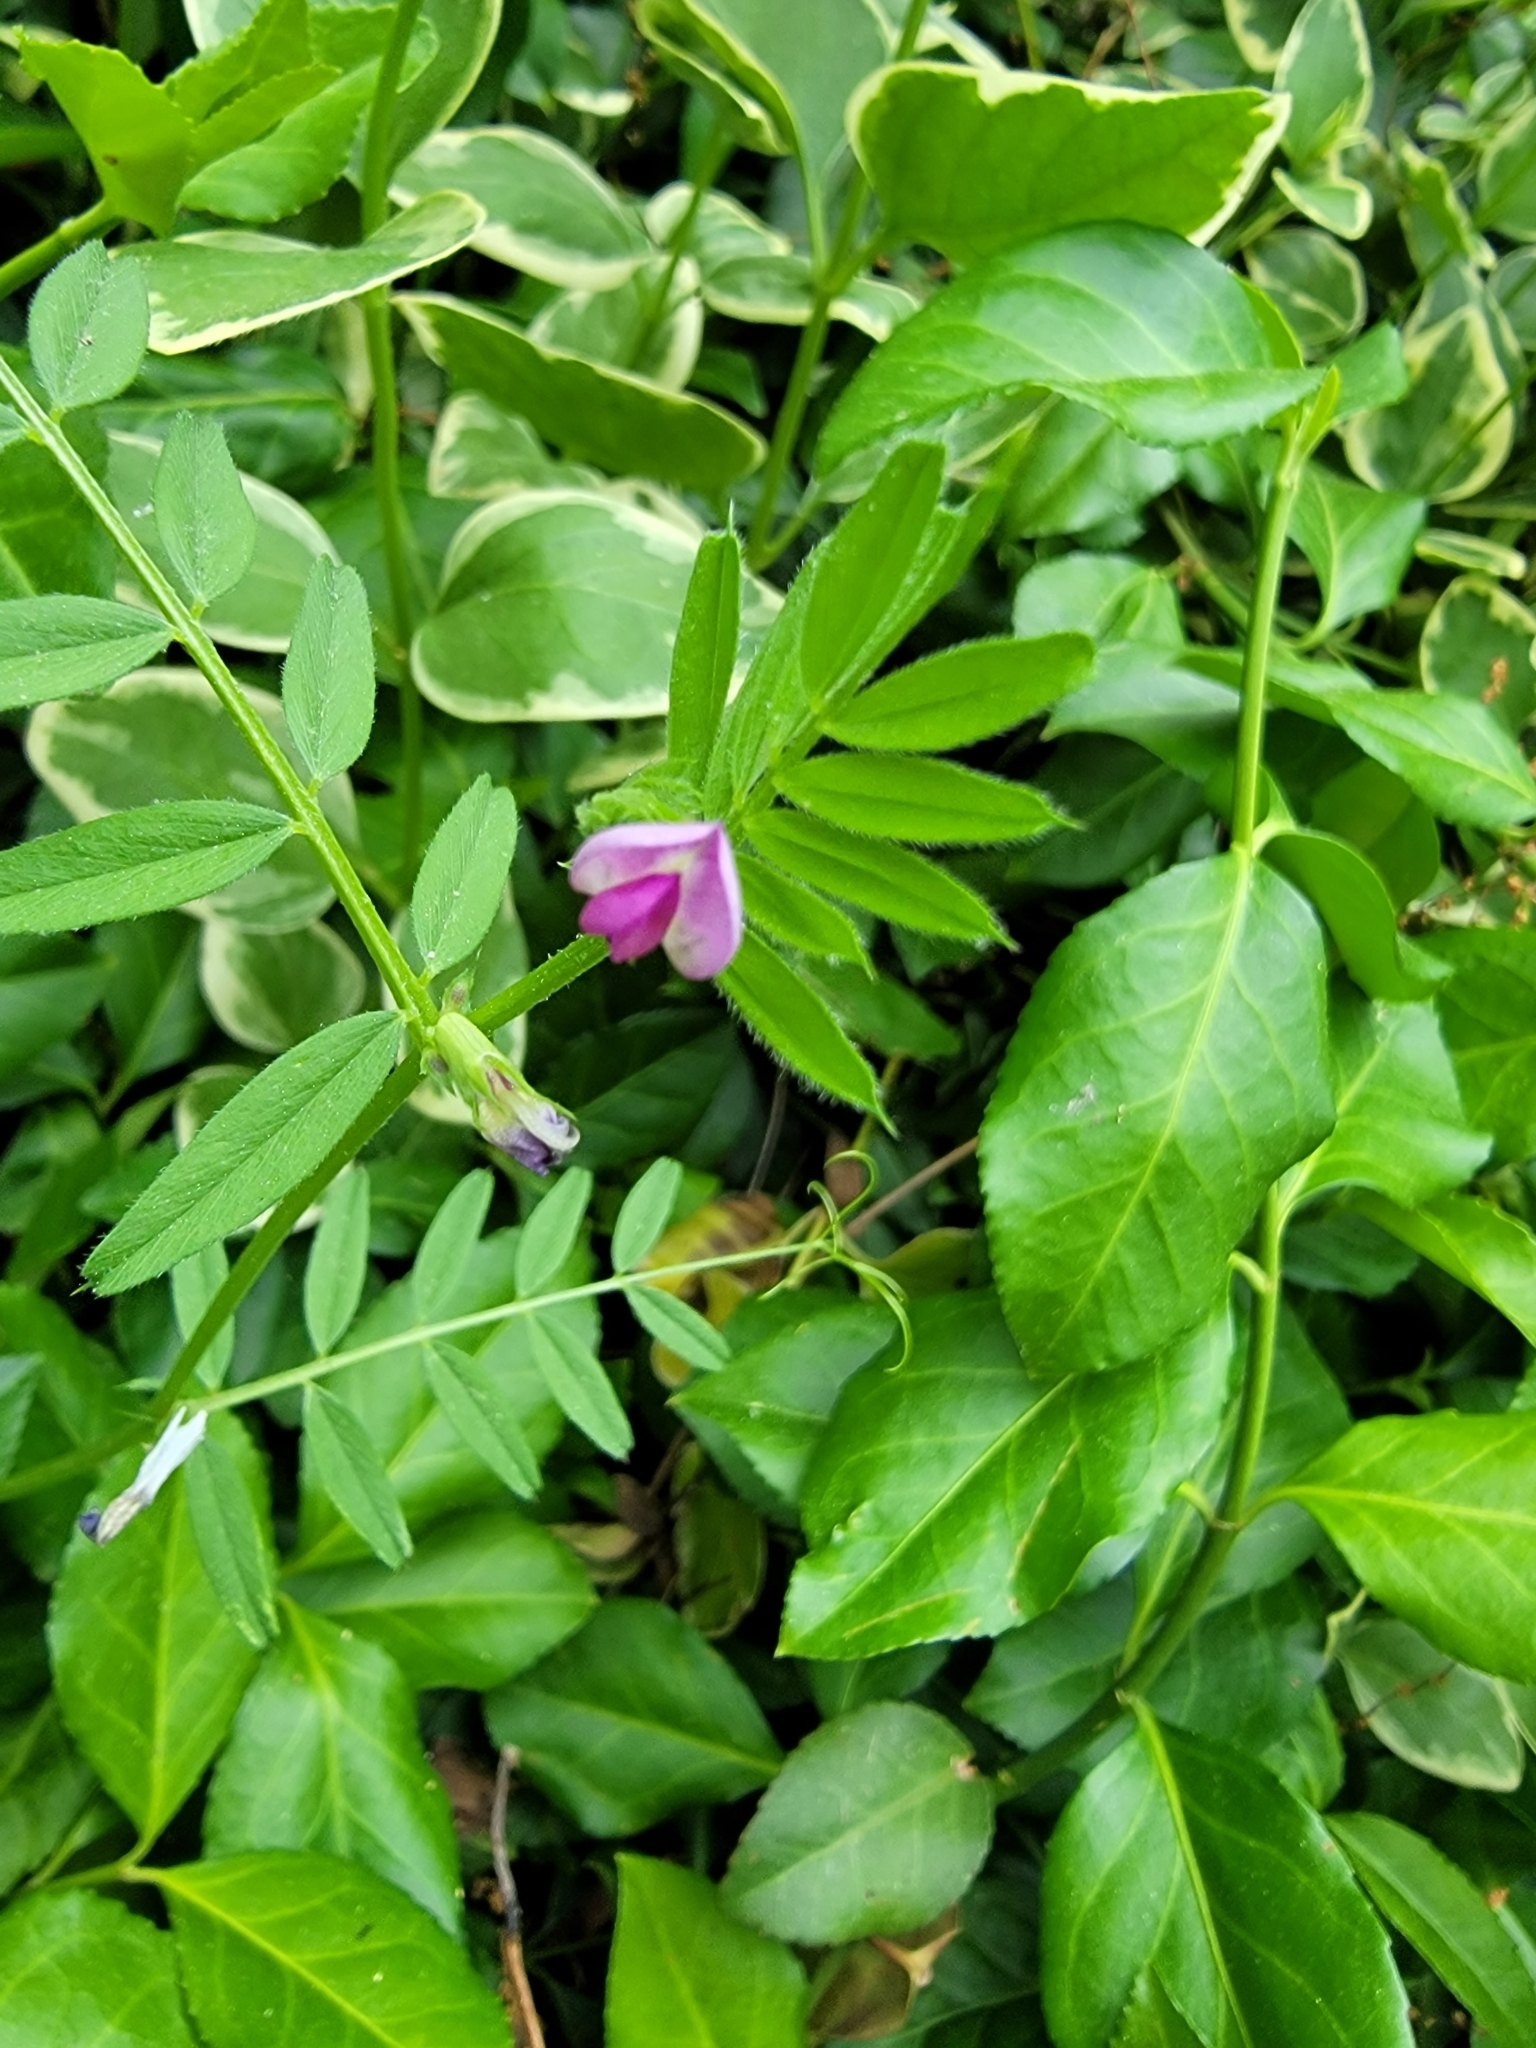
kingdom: Plantae
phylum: Tracheophyta
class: Magnoliopsida
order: Fabales
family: Fabaceae
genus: Vicia
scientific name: Vicia sativa
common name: Garden vetch
